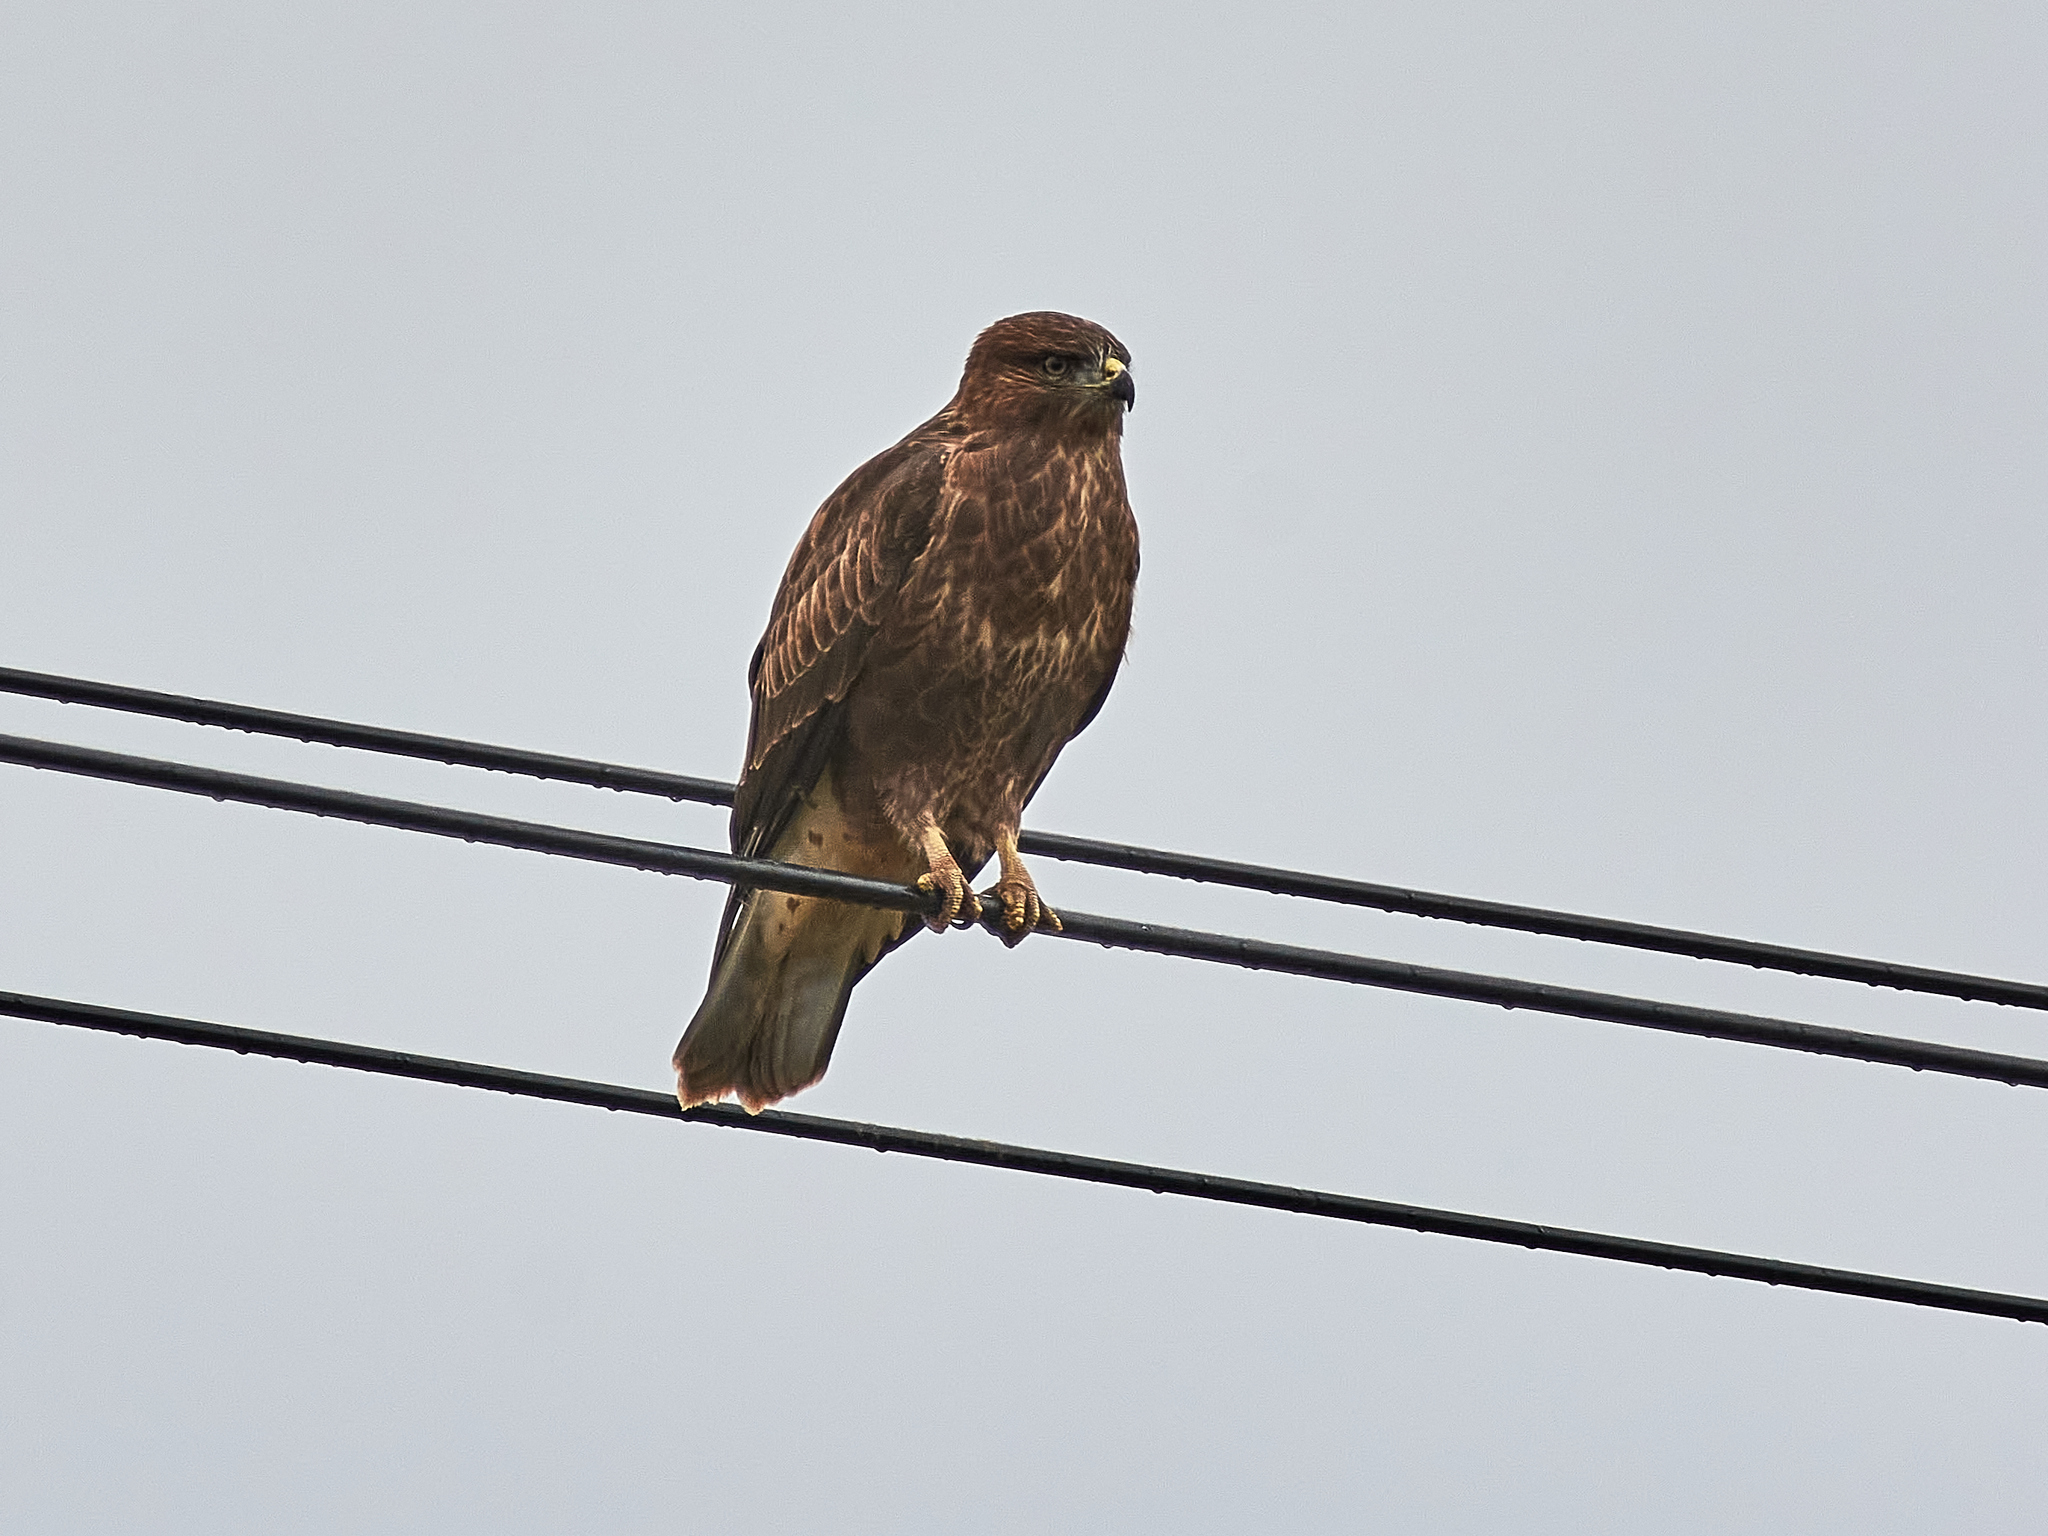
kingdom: Animalia
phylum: Chordata
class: Aves
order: Accipitriformes
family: Accipitridae
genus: Buteo
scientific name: Buteo buteo
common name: Common buzzard
